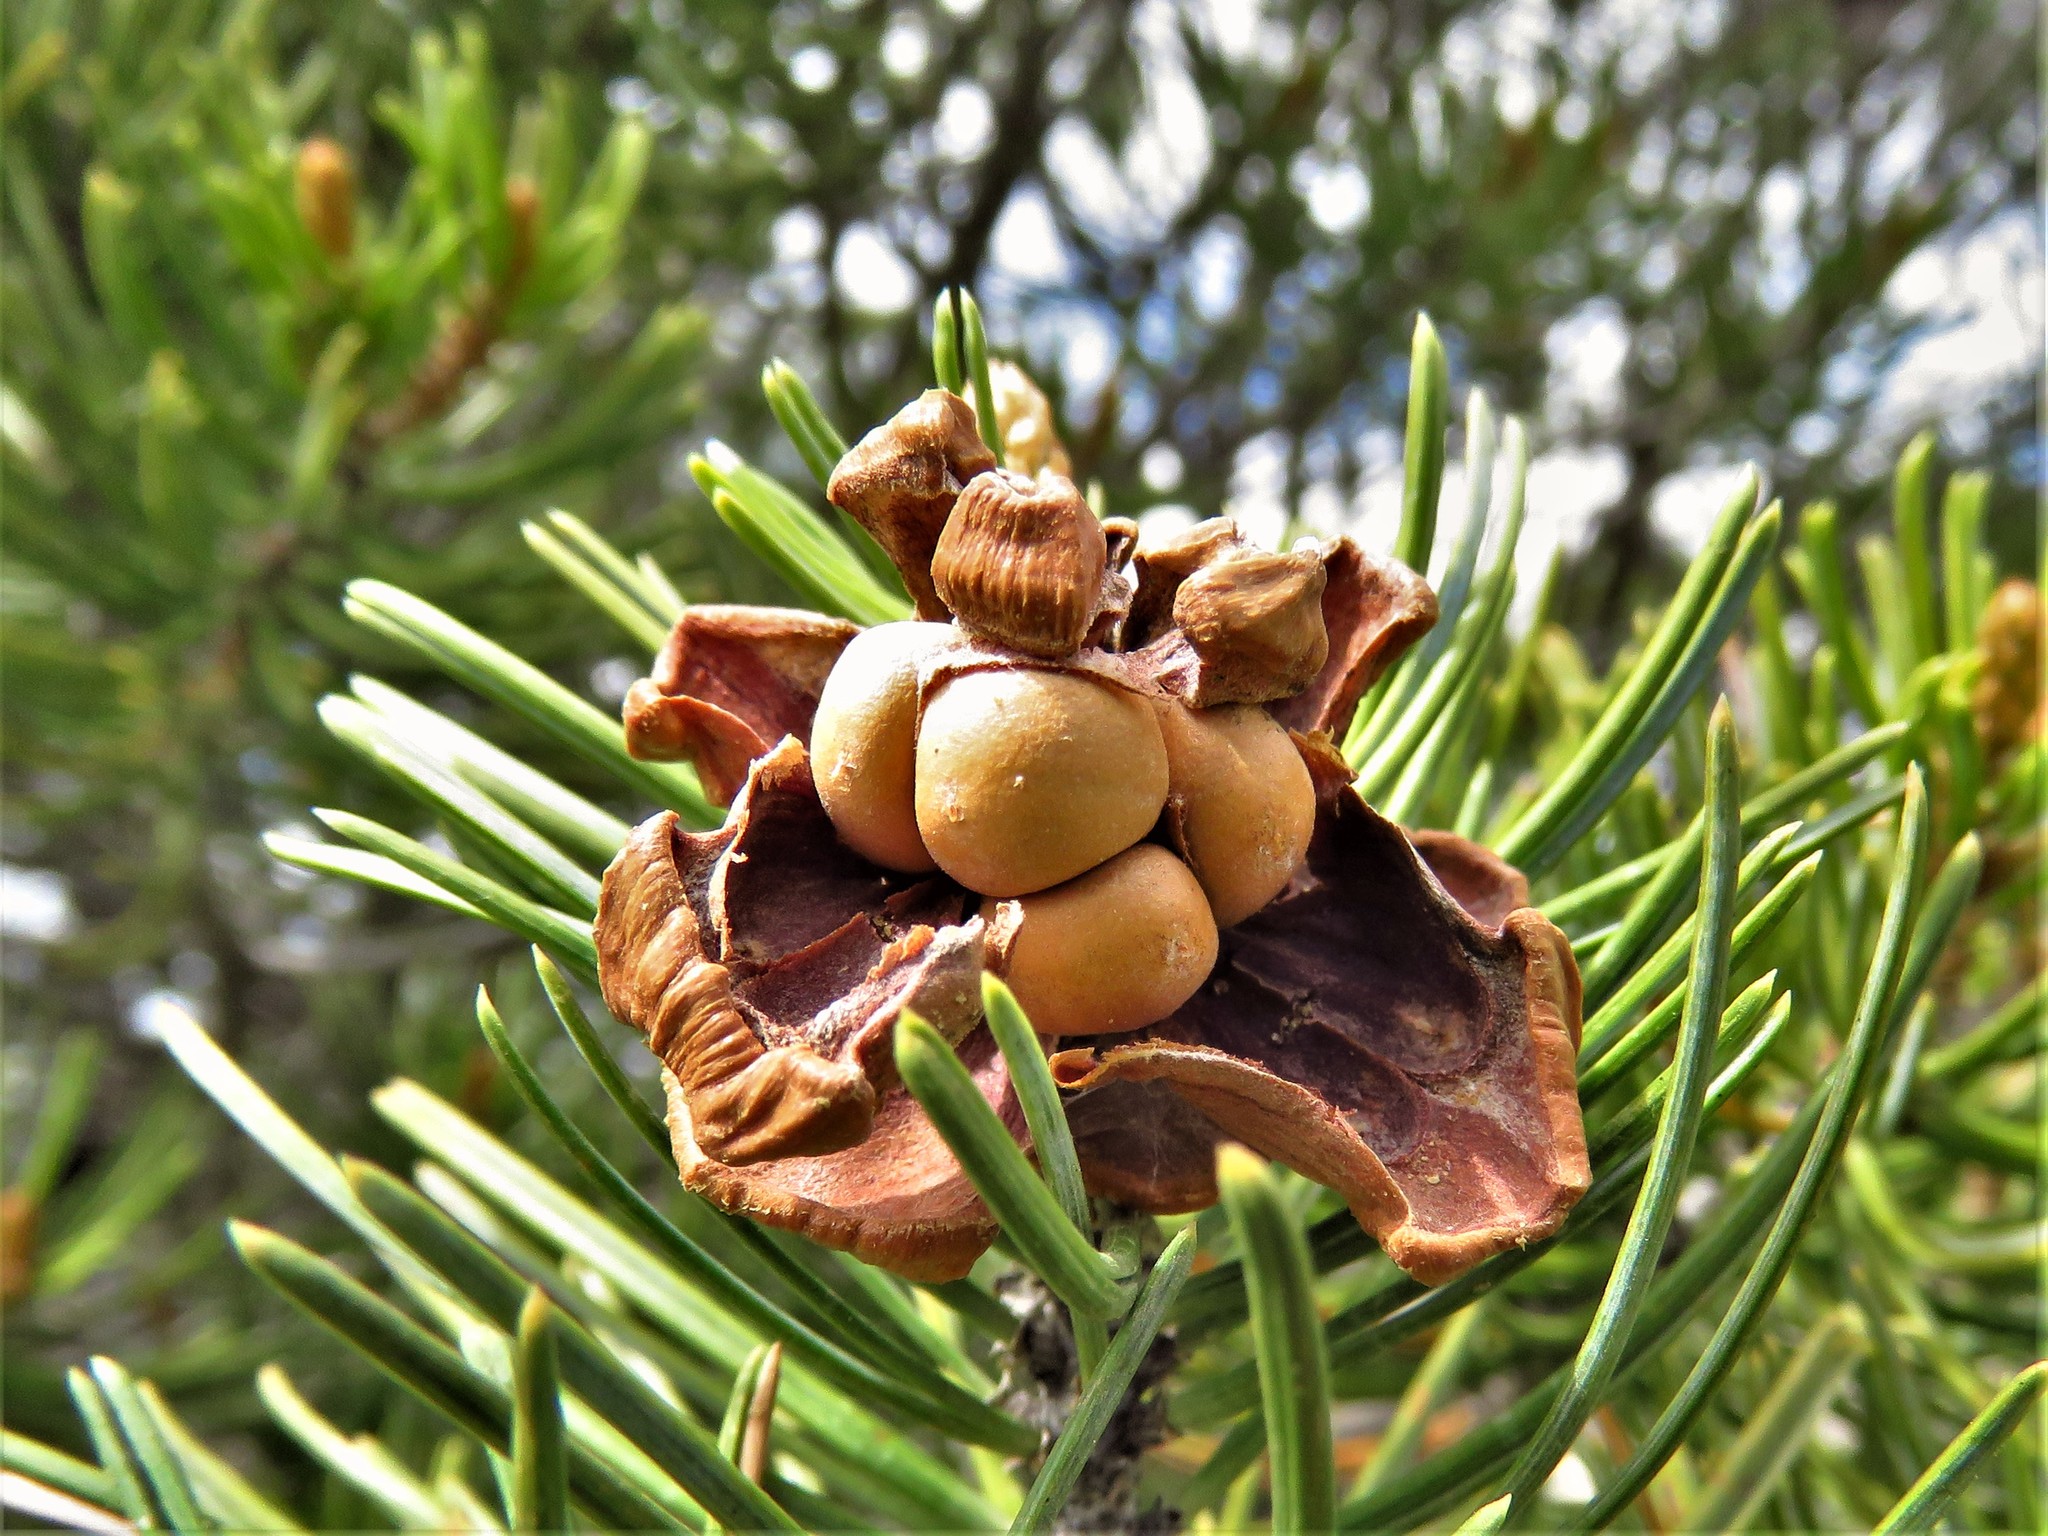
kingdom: Plantae
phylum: Tracheophyta
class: Pinopsida
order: Pinales
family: Pinaceae
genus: Pinus
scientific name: Pinus remota
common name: Nut pine
